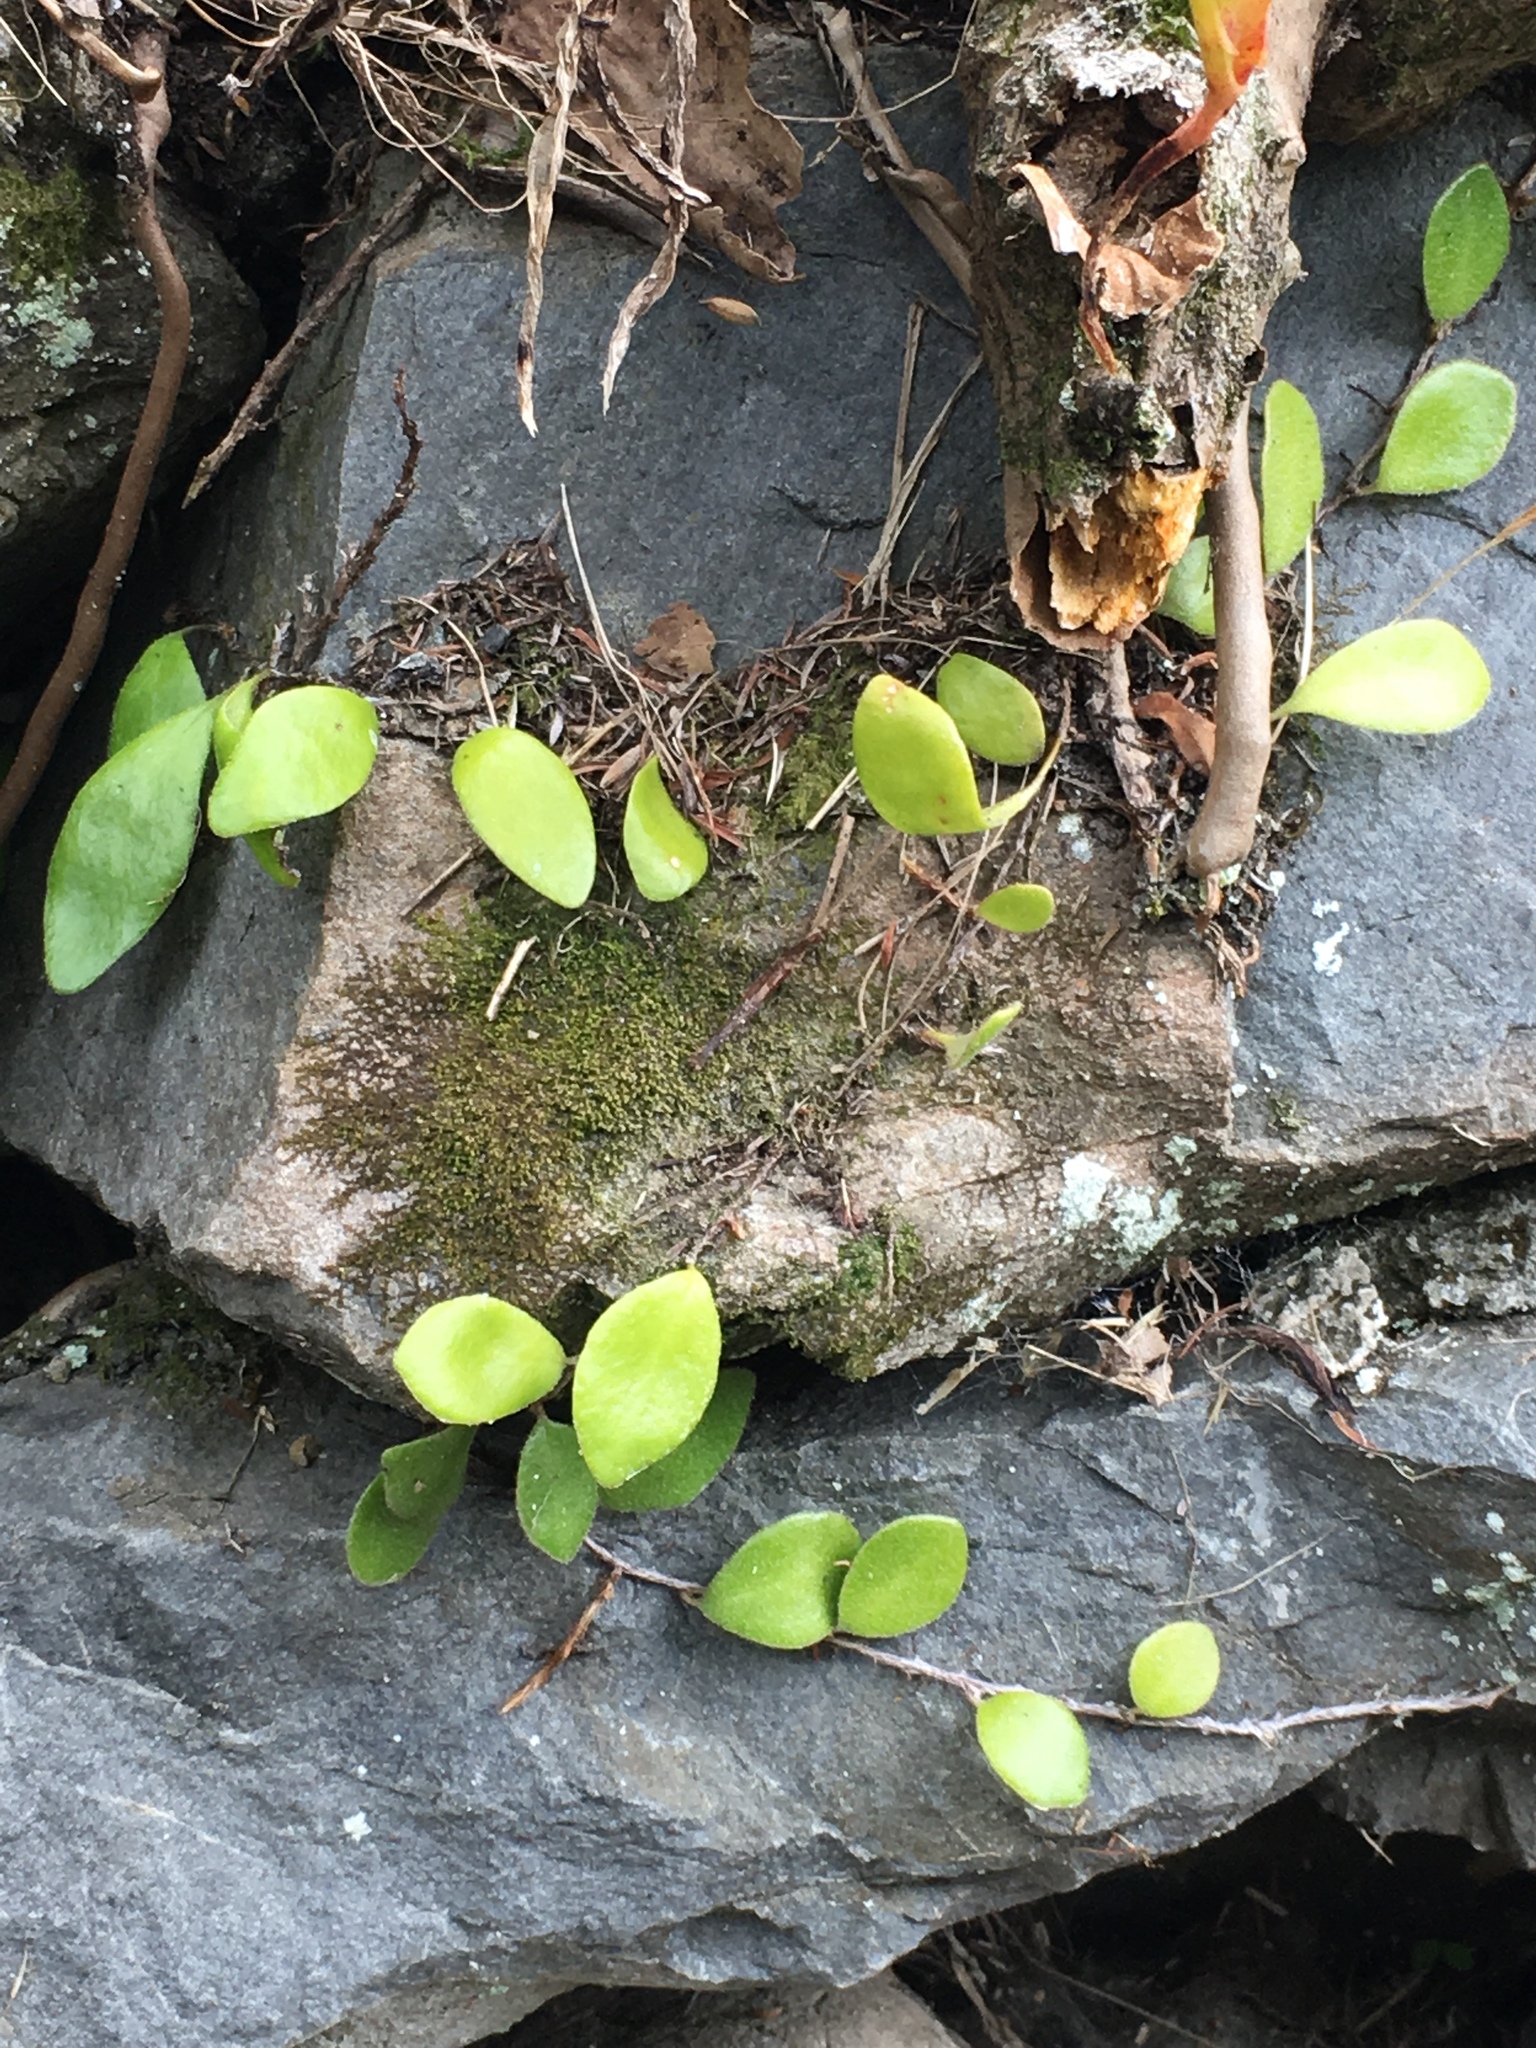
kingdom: Plantae
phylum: Tracheophyta
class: Polypodiopsida
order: Polypodiales
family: Polypodiaceae
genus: Pyrrosia
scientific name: Pyrrosia eleagnifolia
